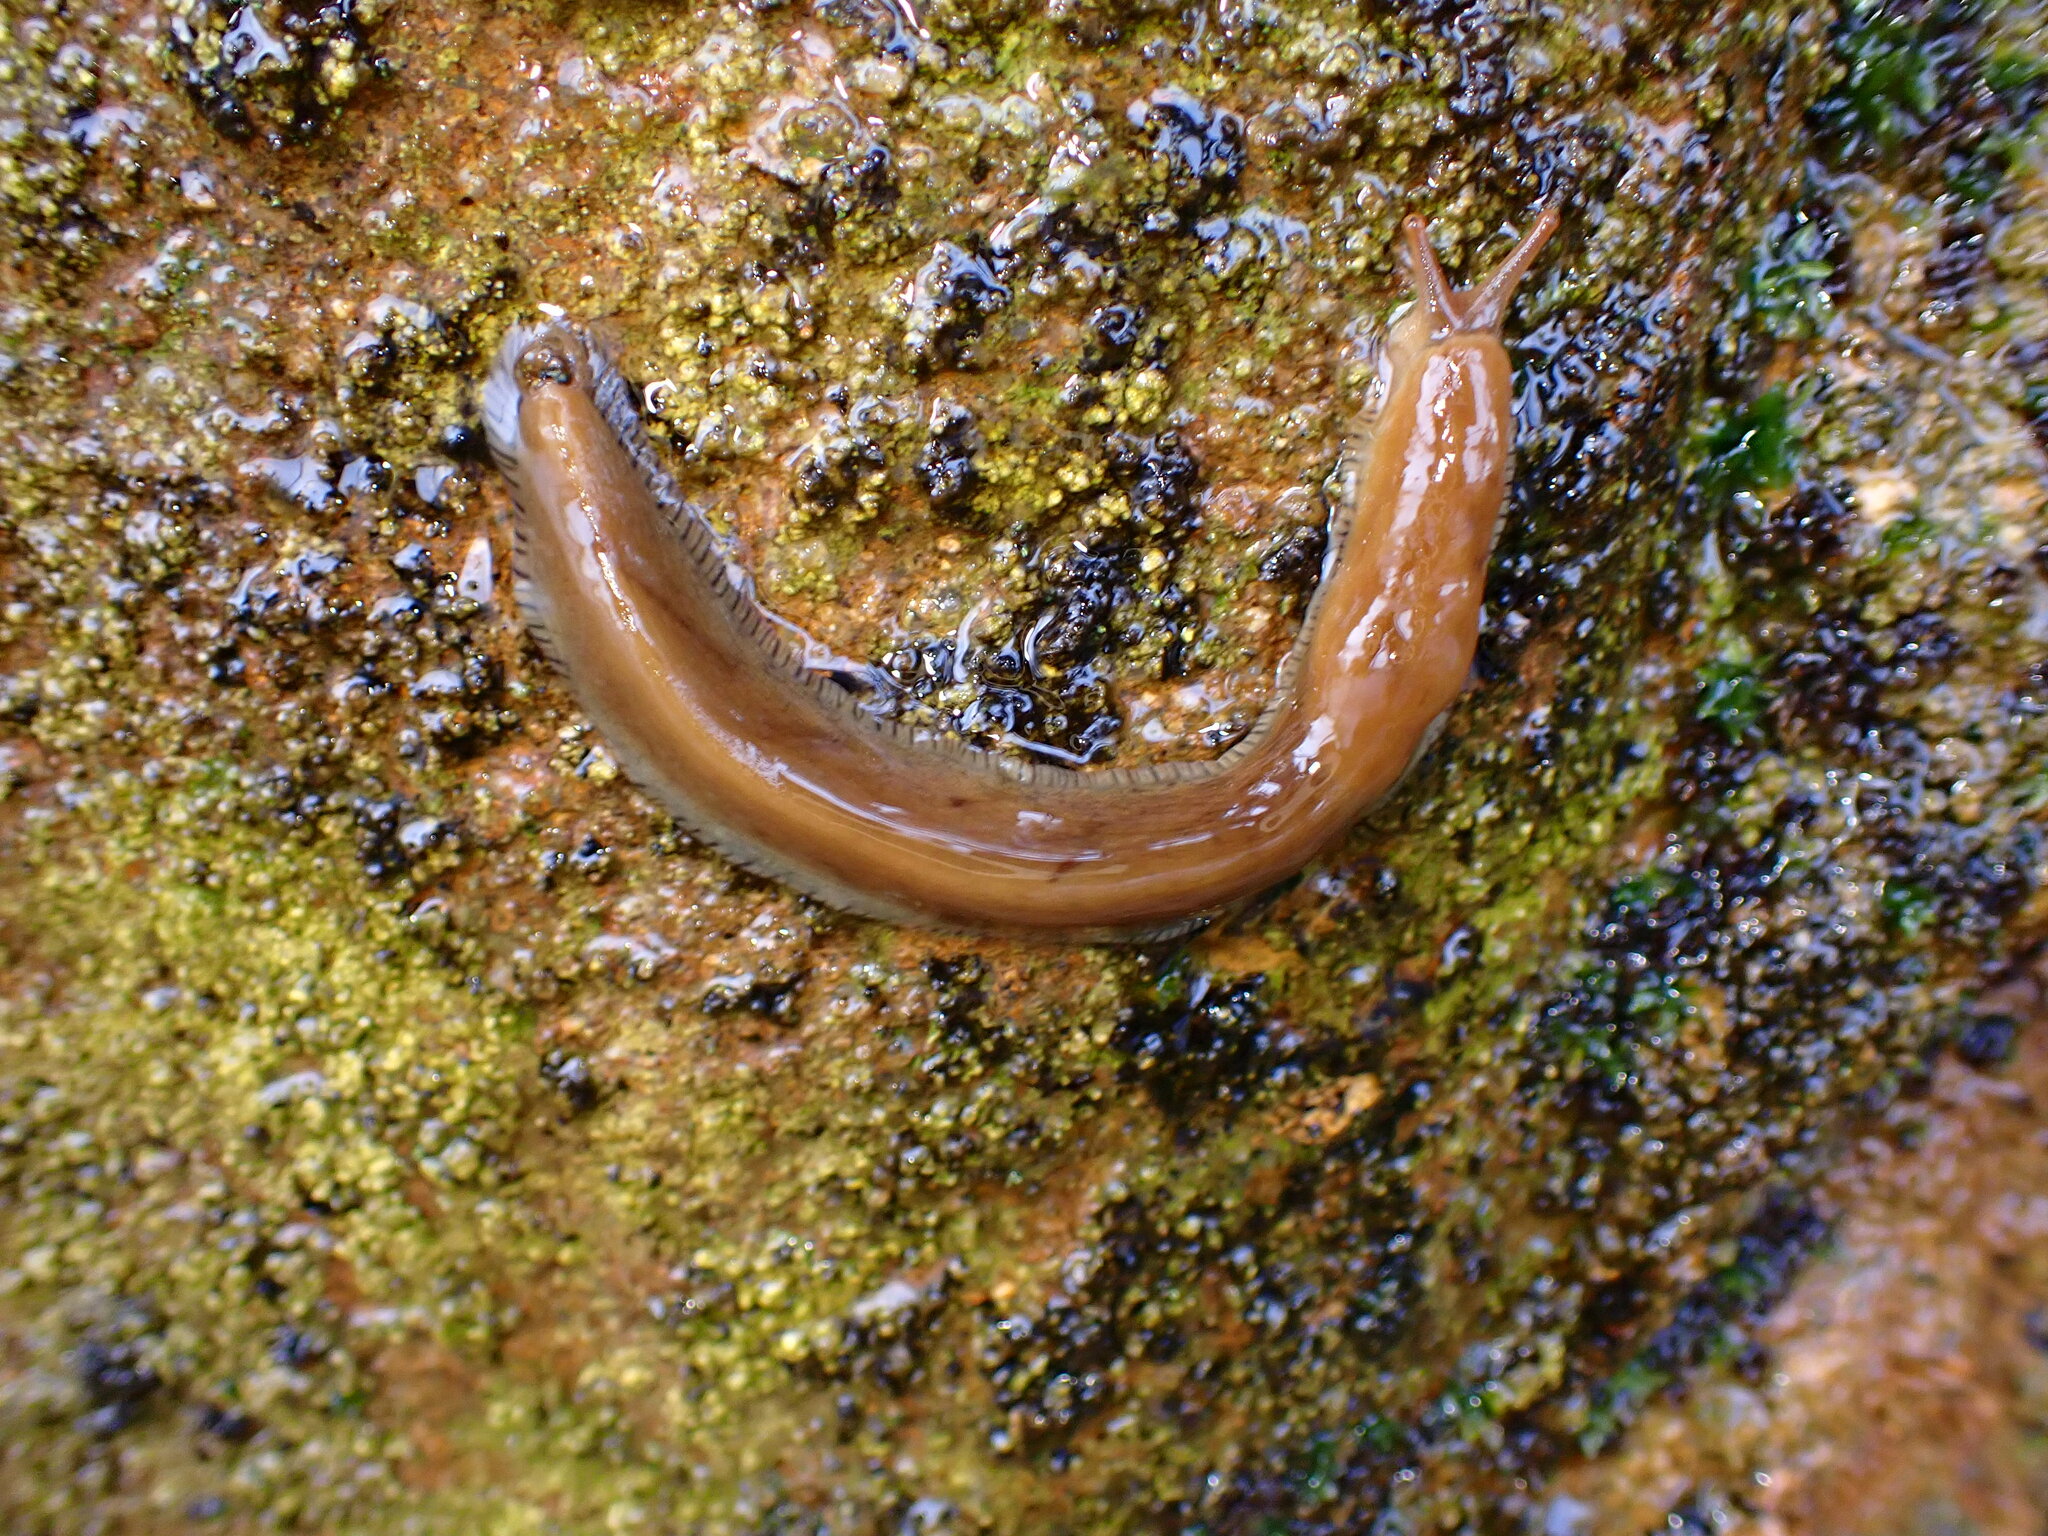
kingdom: Animalia
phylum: Mollusca
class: Gastropoda
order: Stylommatophora
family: Ariolimacidae
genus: Ariolimax
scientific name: Ariolimax buttoni
